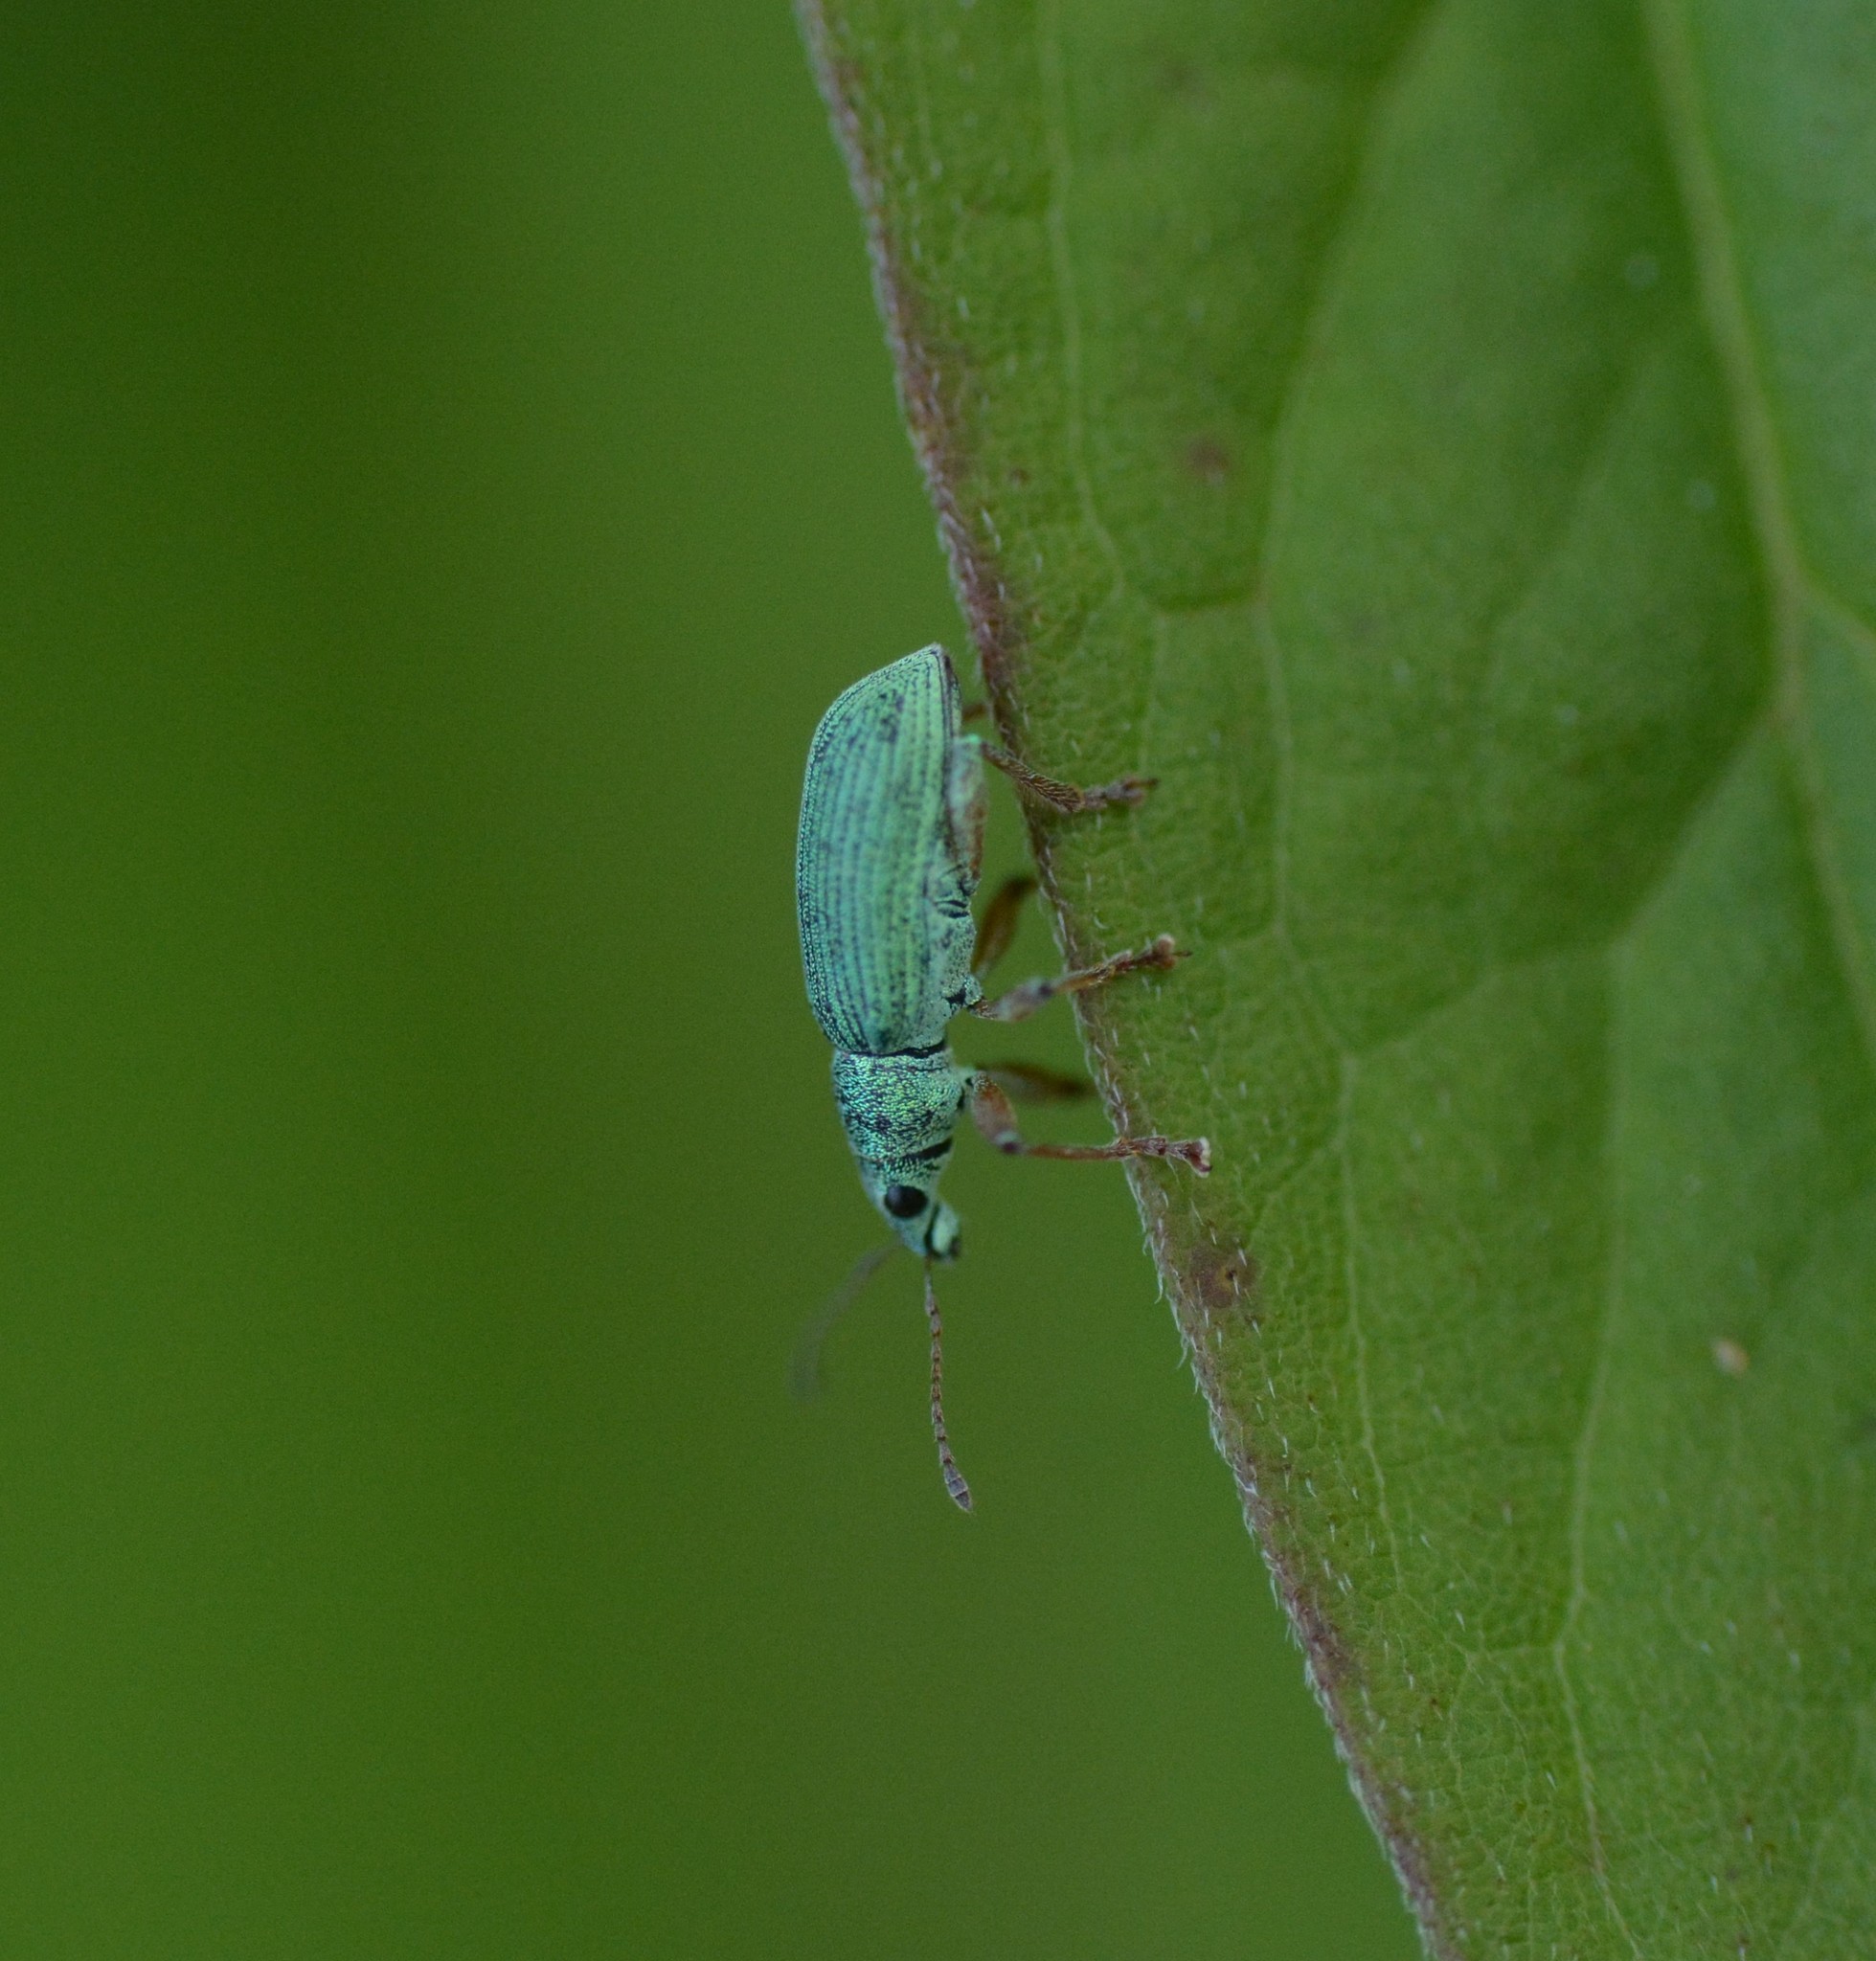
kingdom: Animalia
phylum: Arthropoda
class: Insecta
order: Coleoptera
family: Curculionidae
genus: Polydrusus
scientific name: Polydrusus formosus
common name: Weevil
